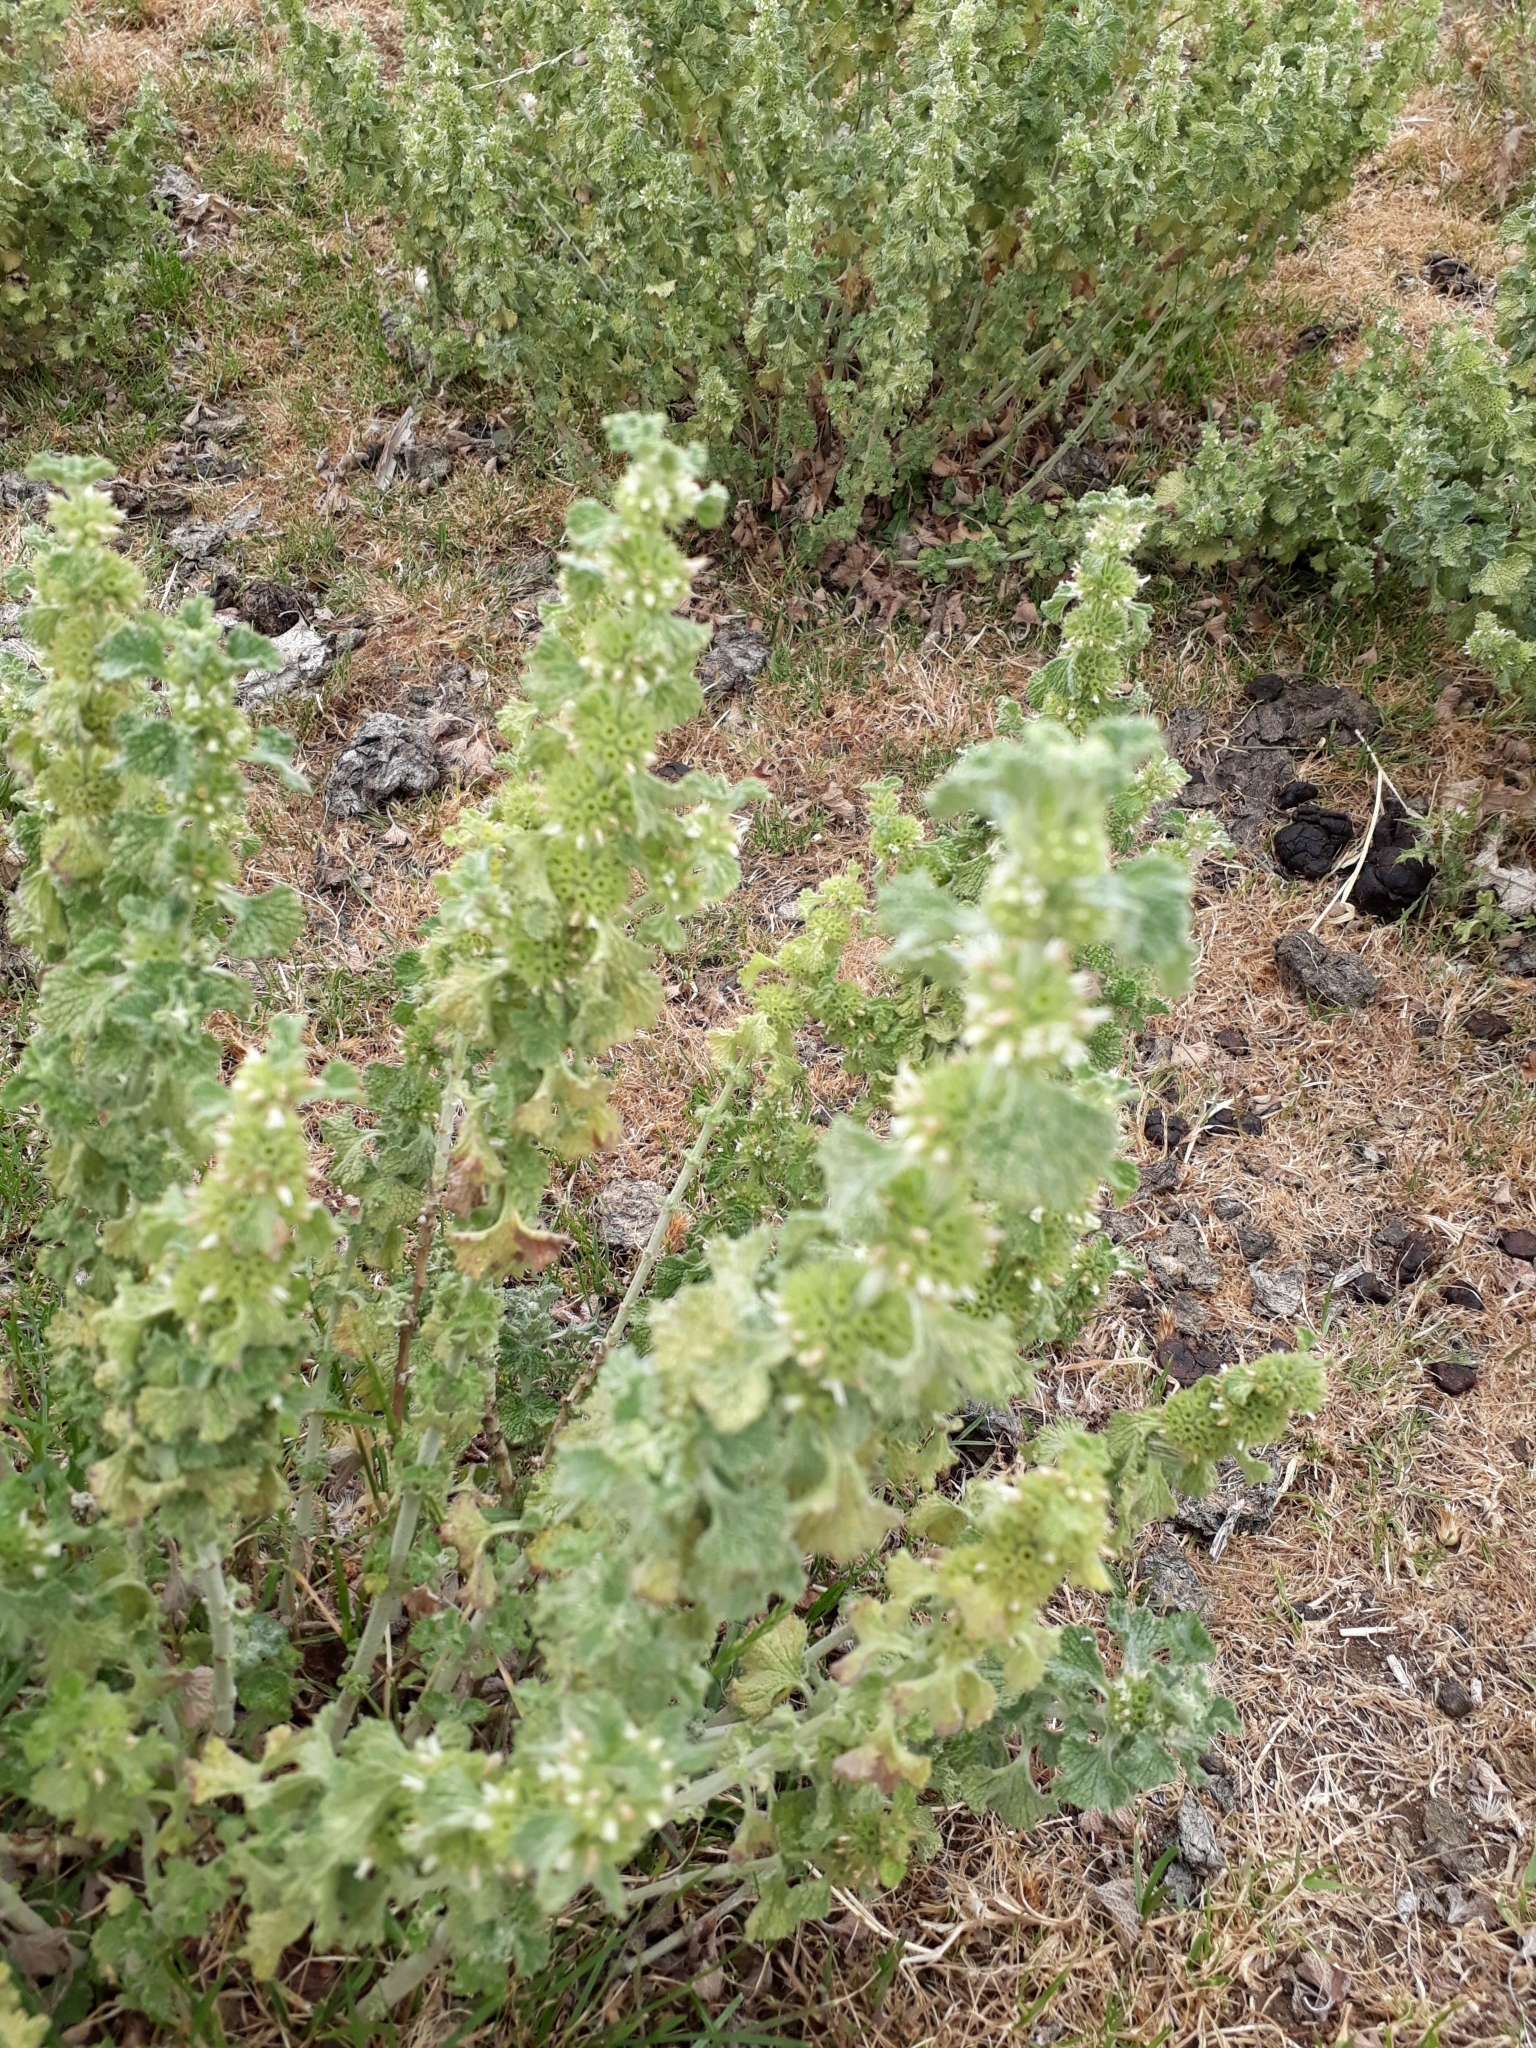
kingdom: Plantae
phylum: Tracheophyta
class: Magnoliopsida
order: Lamiales
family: Lamiaceae
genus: Marrubium
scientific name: Marrubium vulgare
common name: Horehound
